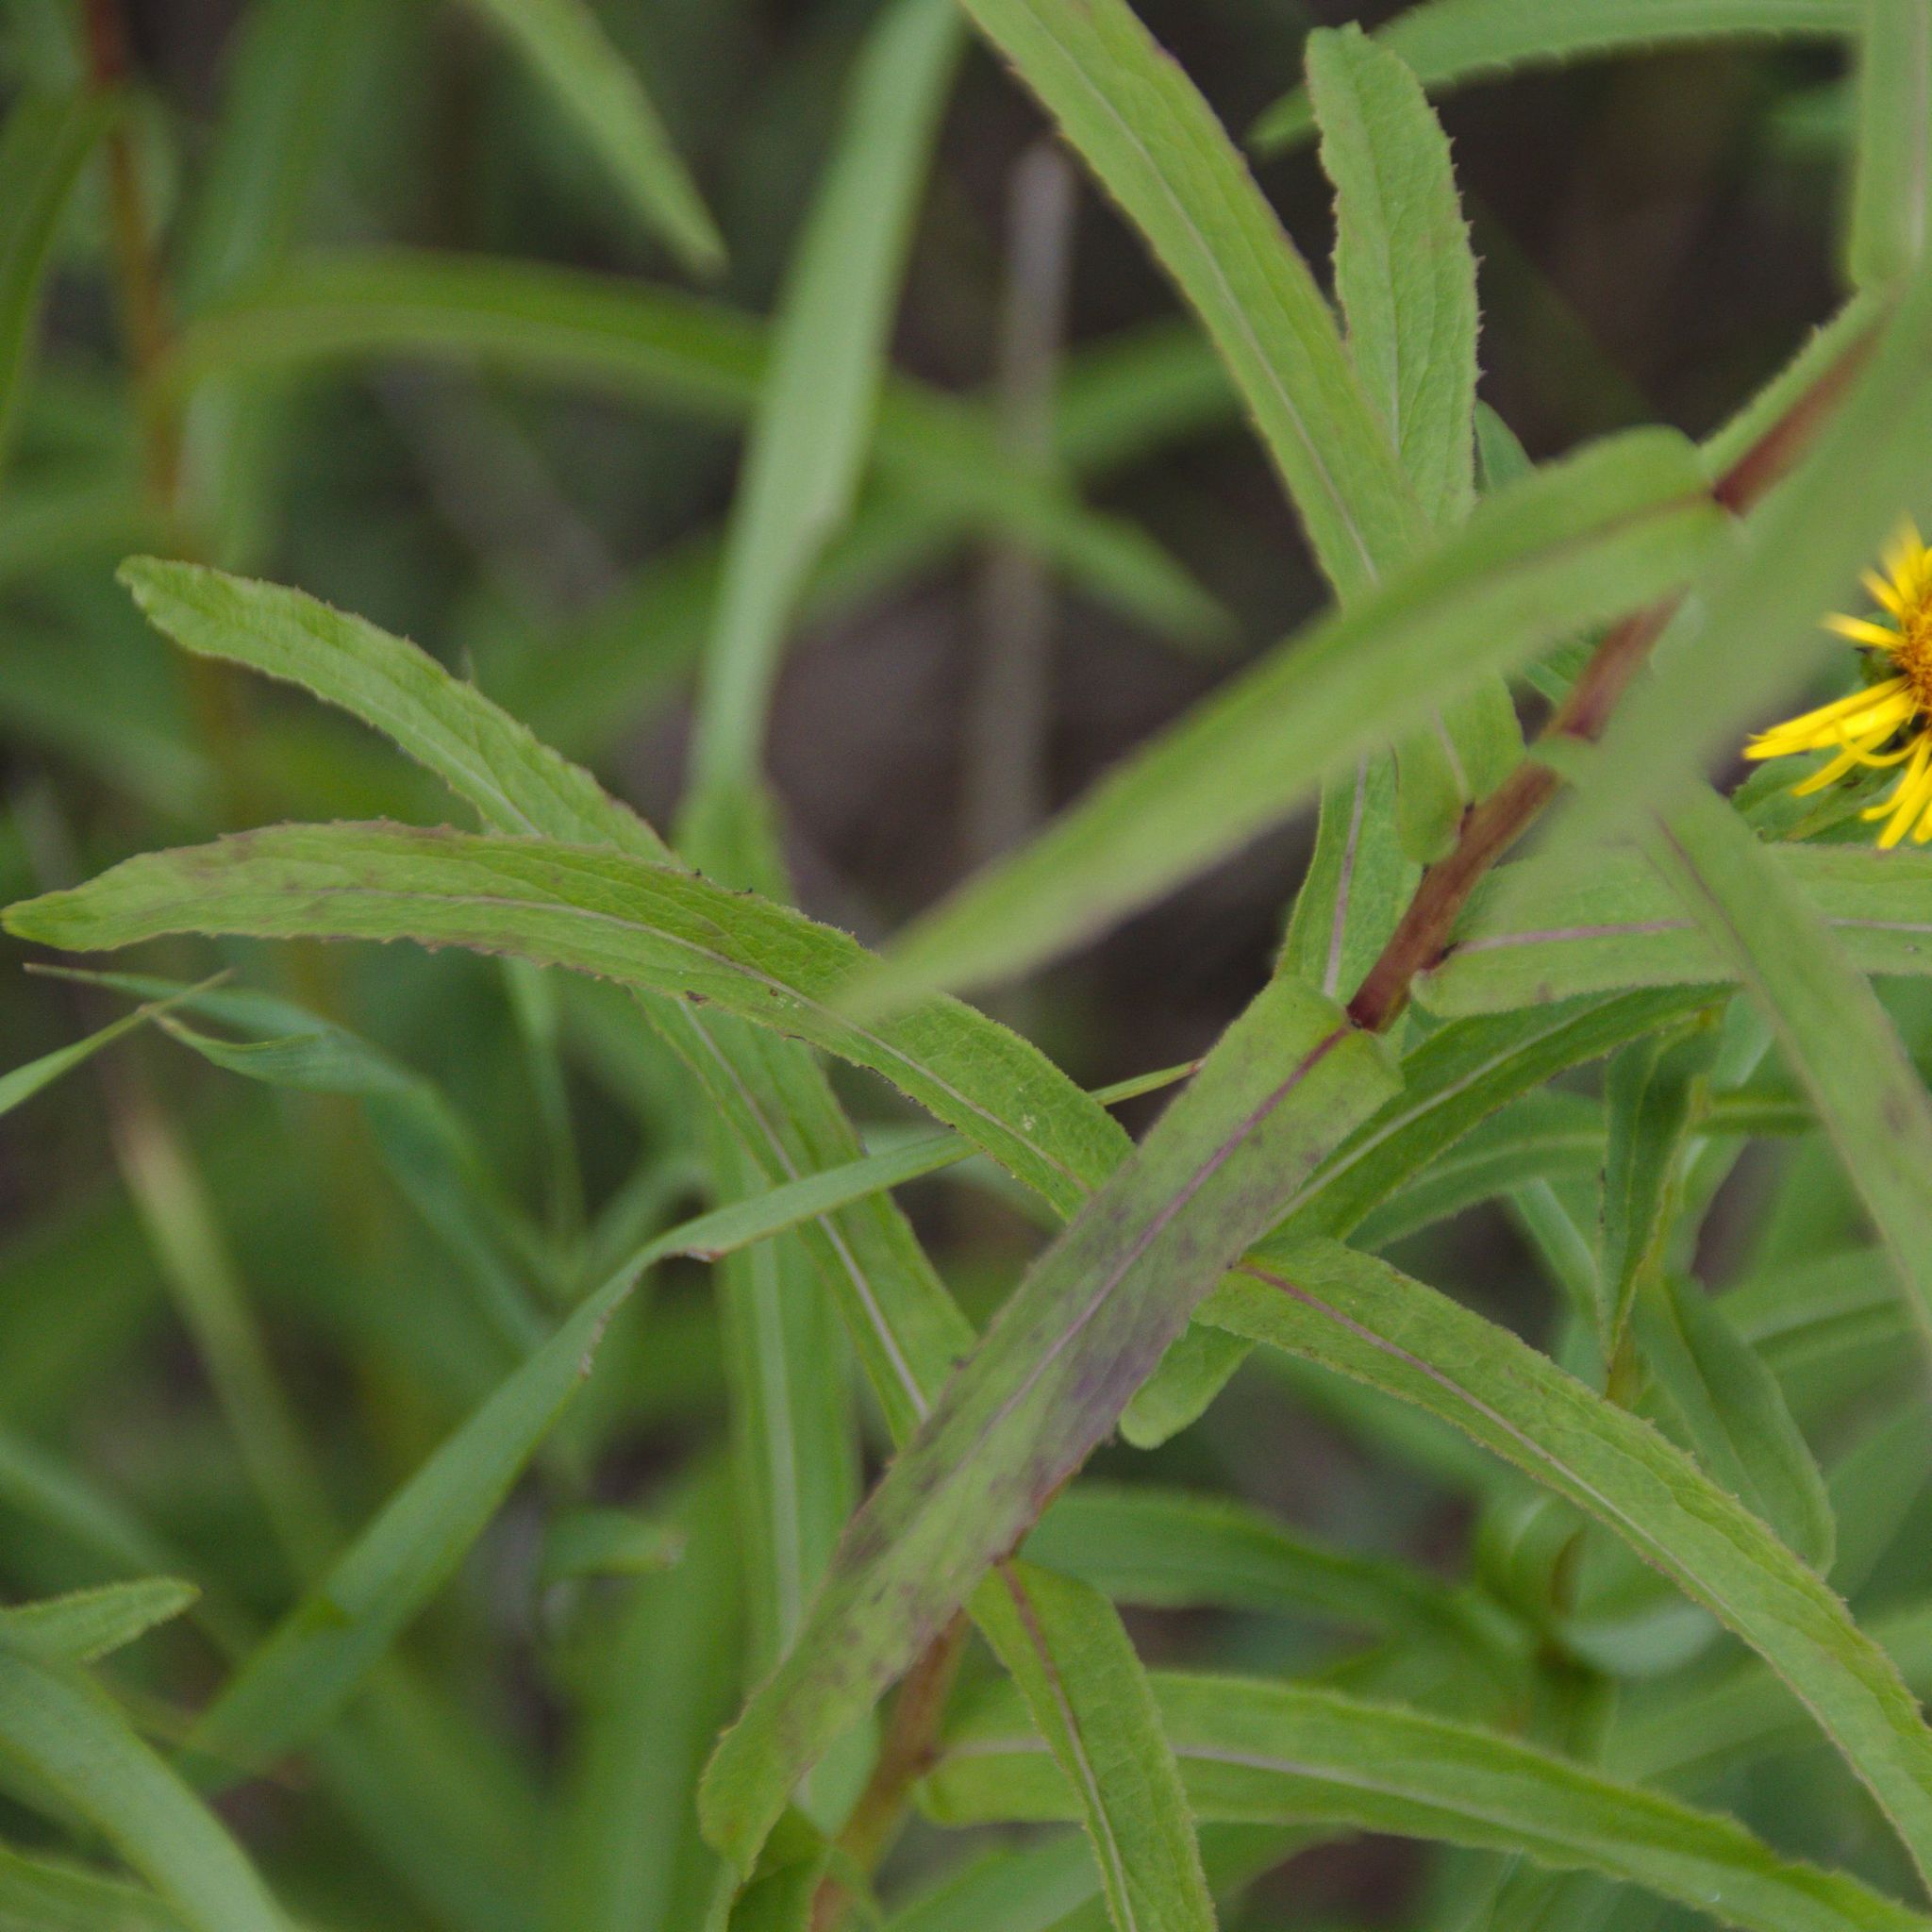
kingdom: Plantae
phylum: Tracheophyta
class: Magnoliopsida
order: Asterales
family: Asteraceae
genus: Pentanema
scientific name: Pentanema salicinum
